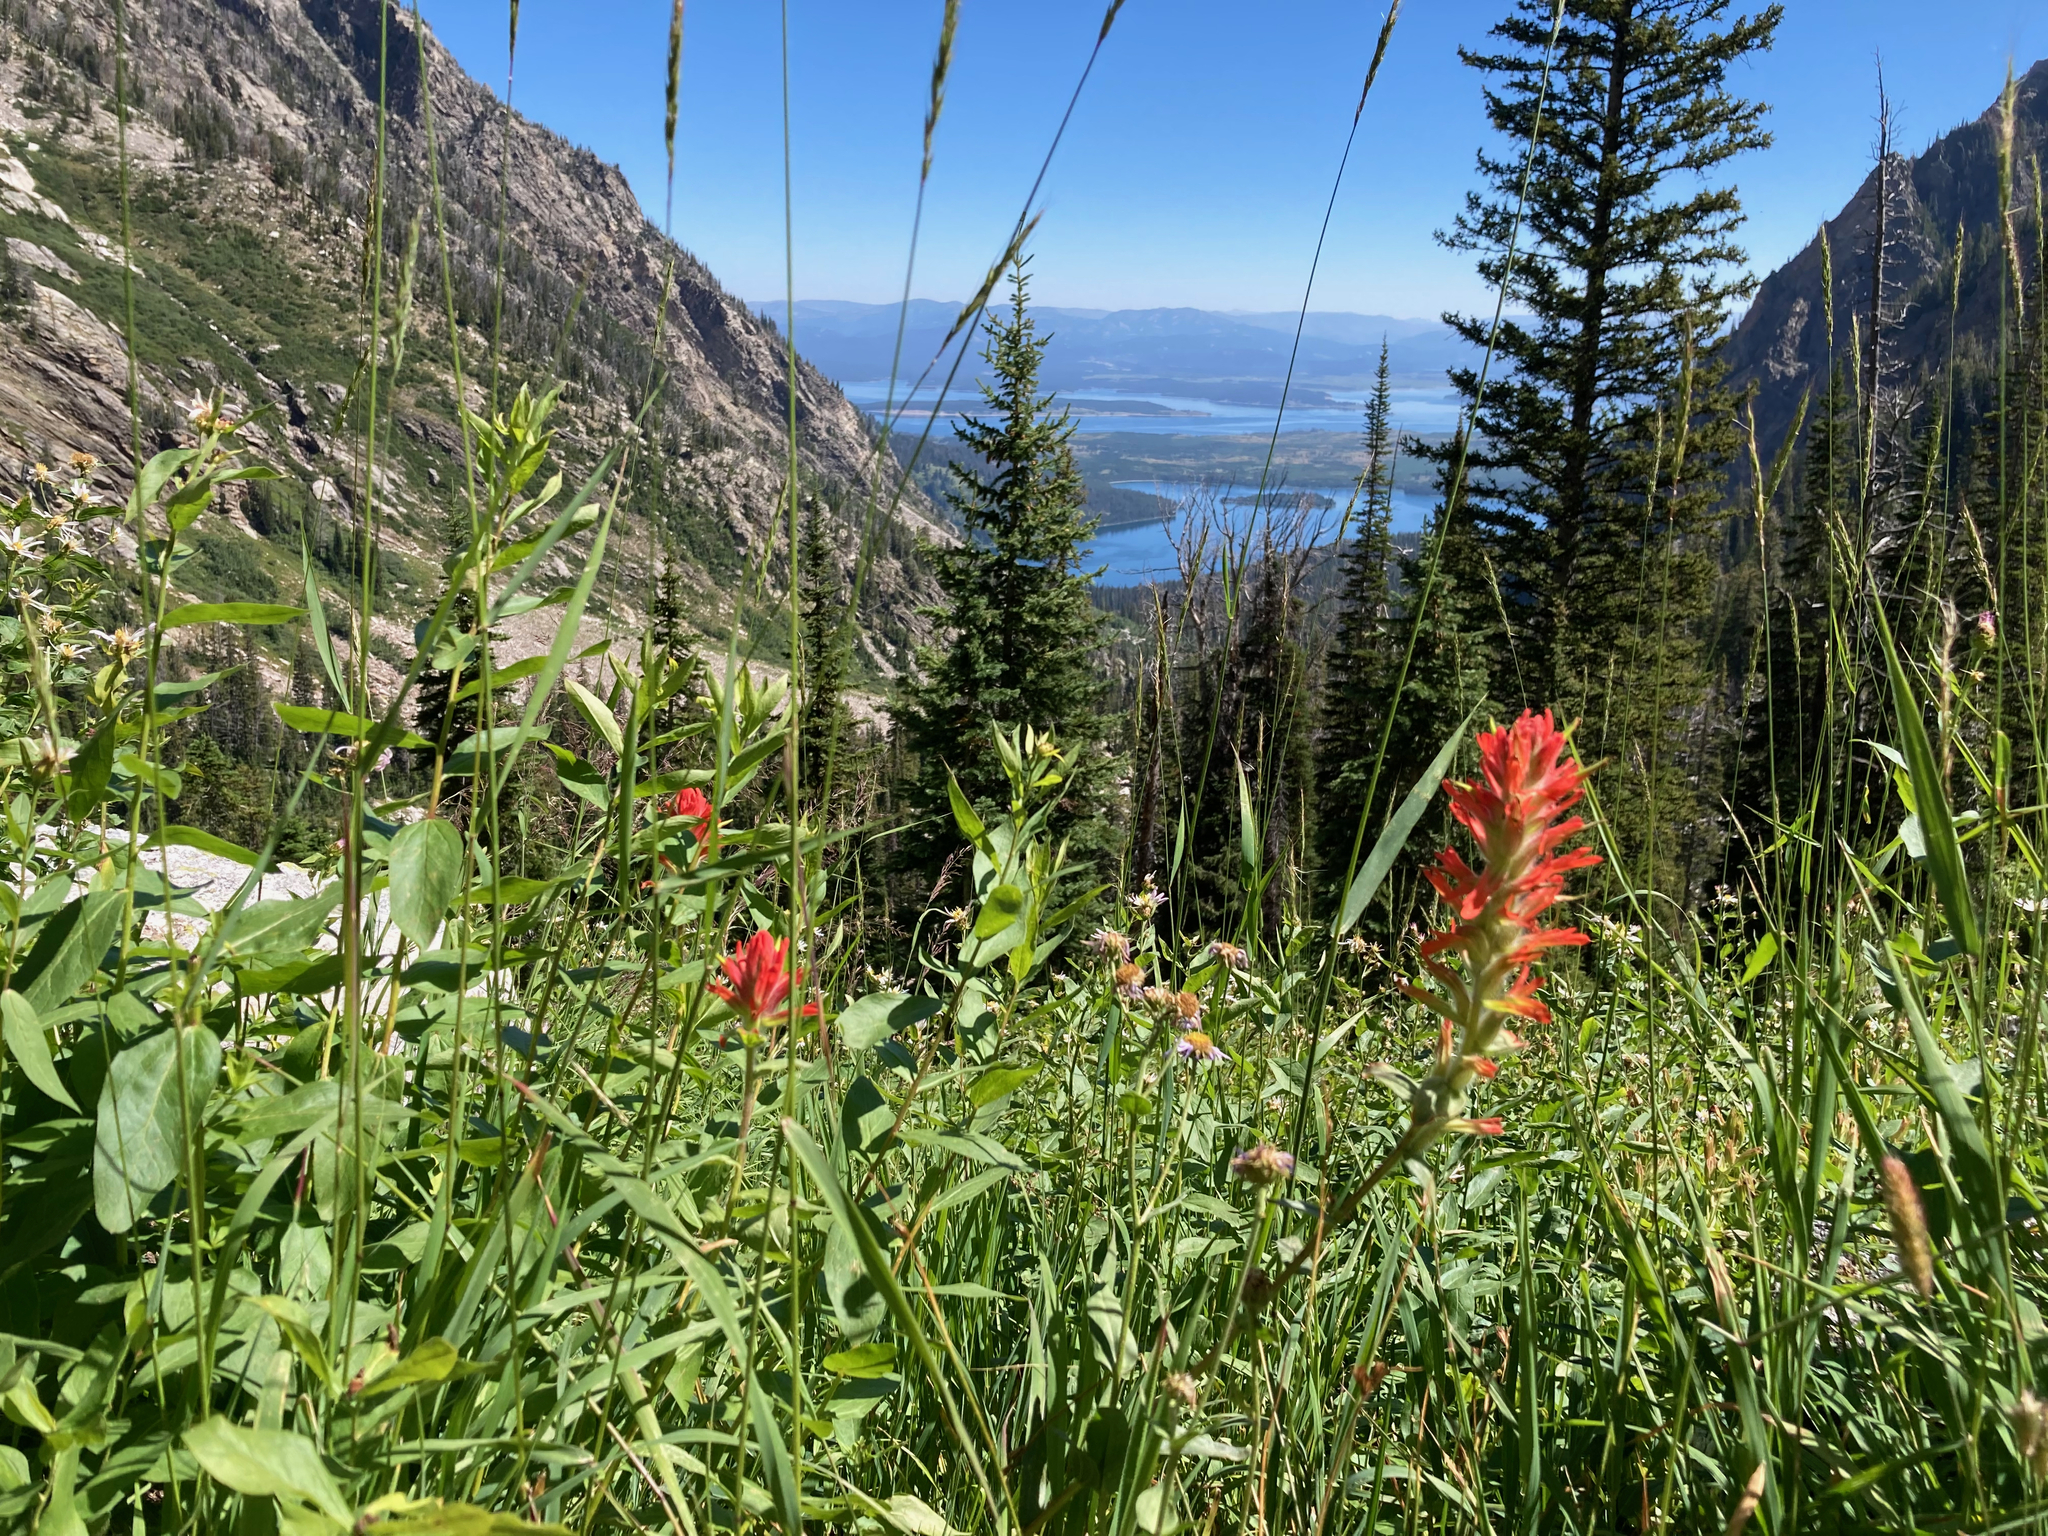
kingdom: Plantae
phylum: Tracheophyta
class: Magnoliopsida
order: Lamiales
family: Orobanchaceae
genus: Castilleja
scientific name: Castilleja miniata
